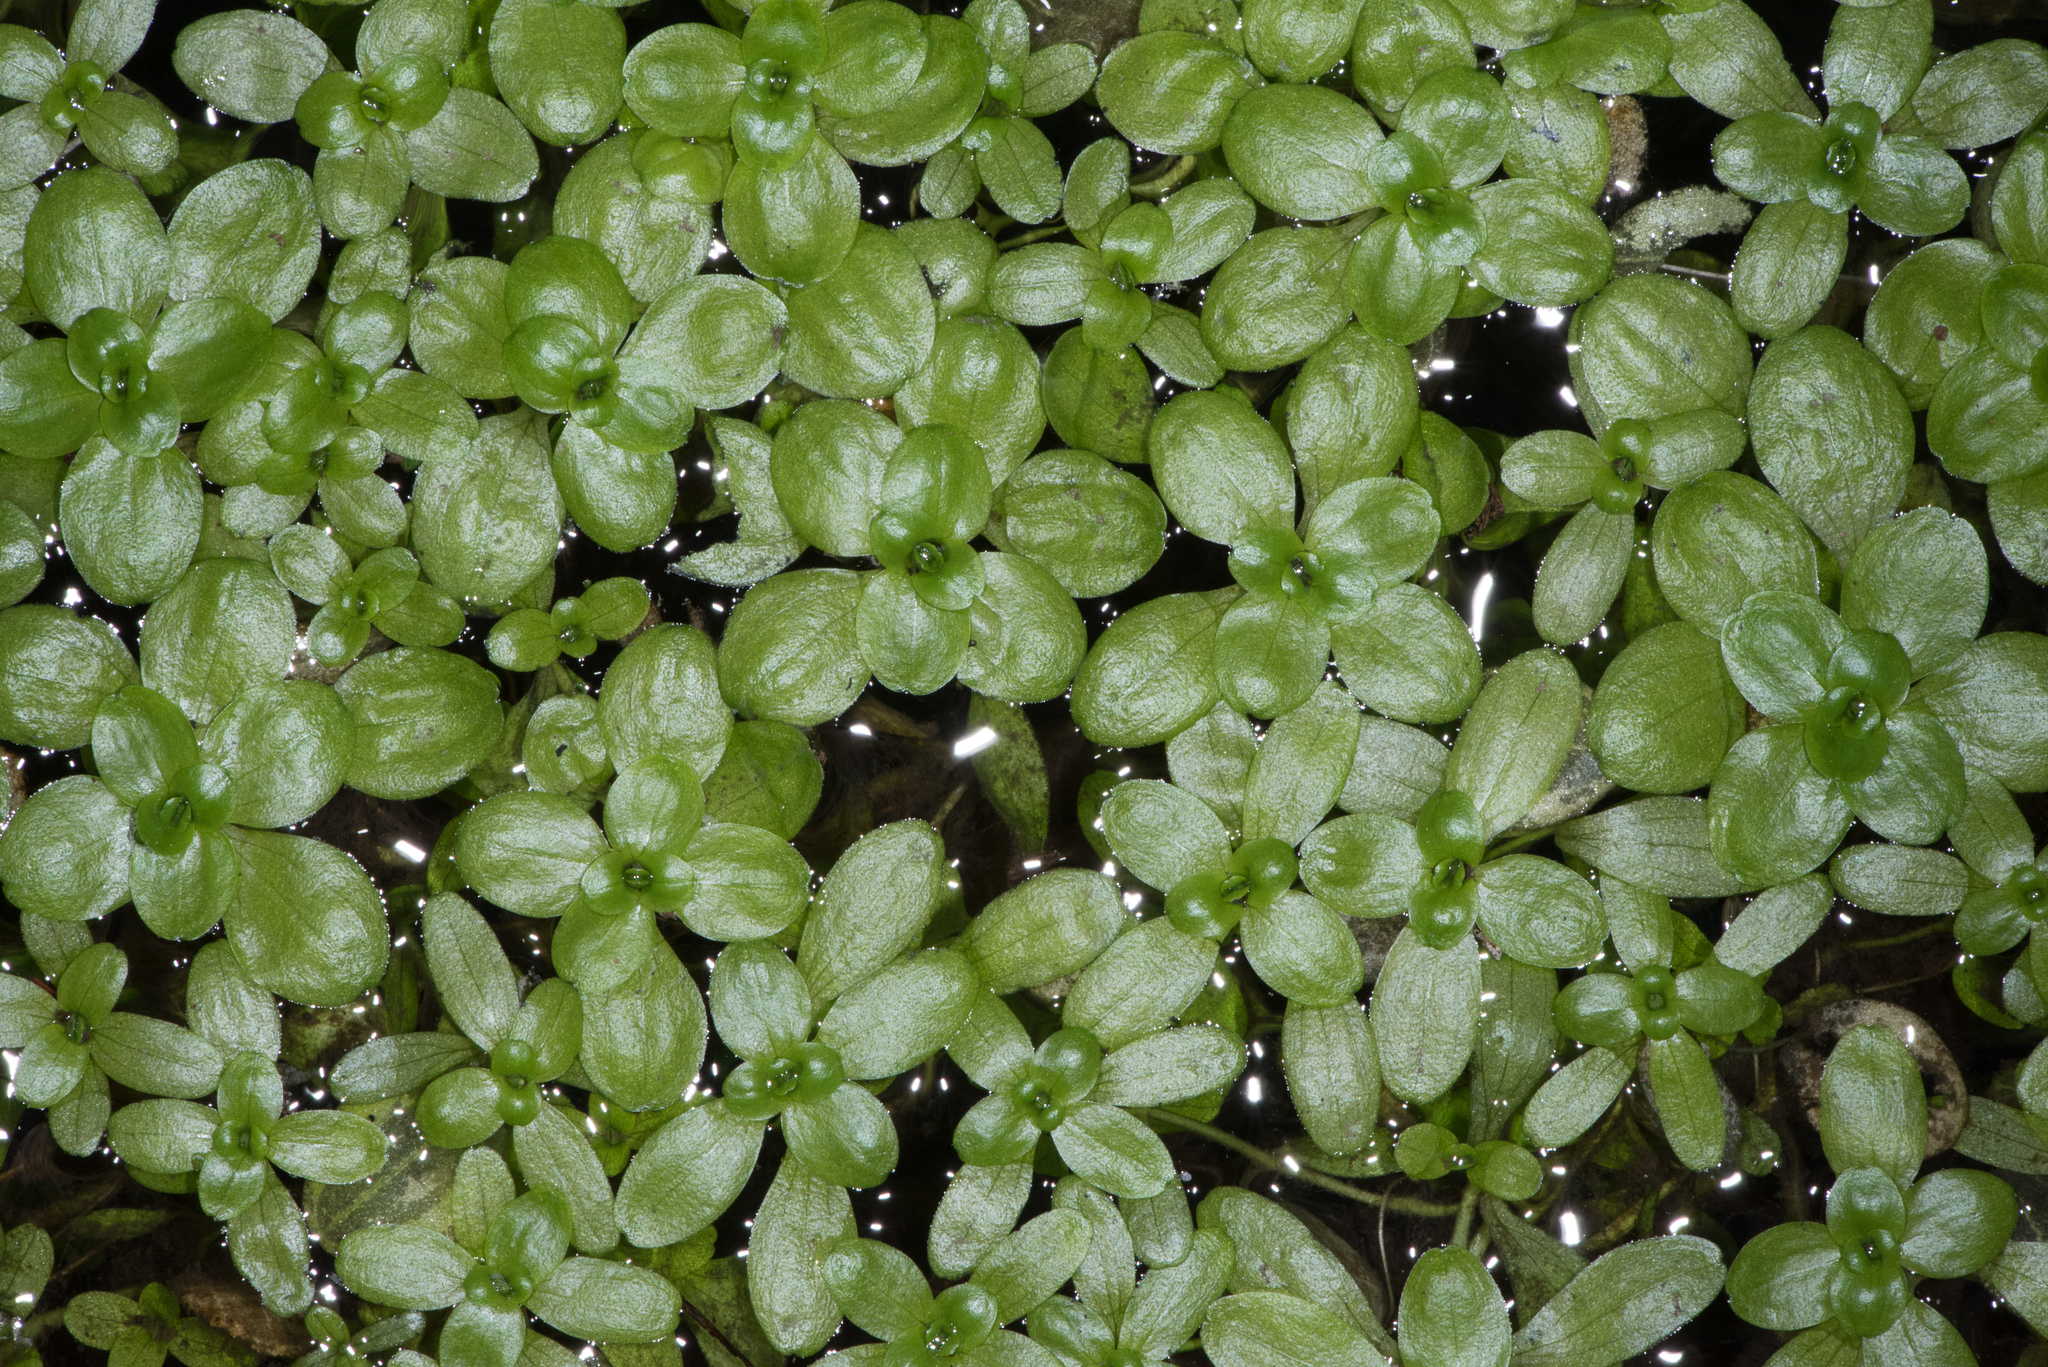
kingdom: Plantae
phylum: Tracheophyta
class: Magnoliopsida
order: Lamiales
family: Plantaginaceae
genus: Callitriche
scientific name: Callitriche heterophylla
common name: Two-headed water-starwort
